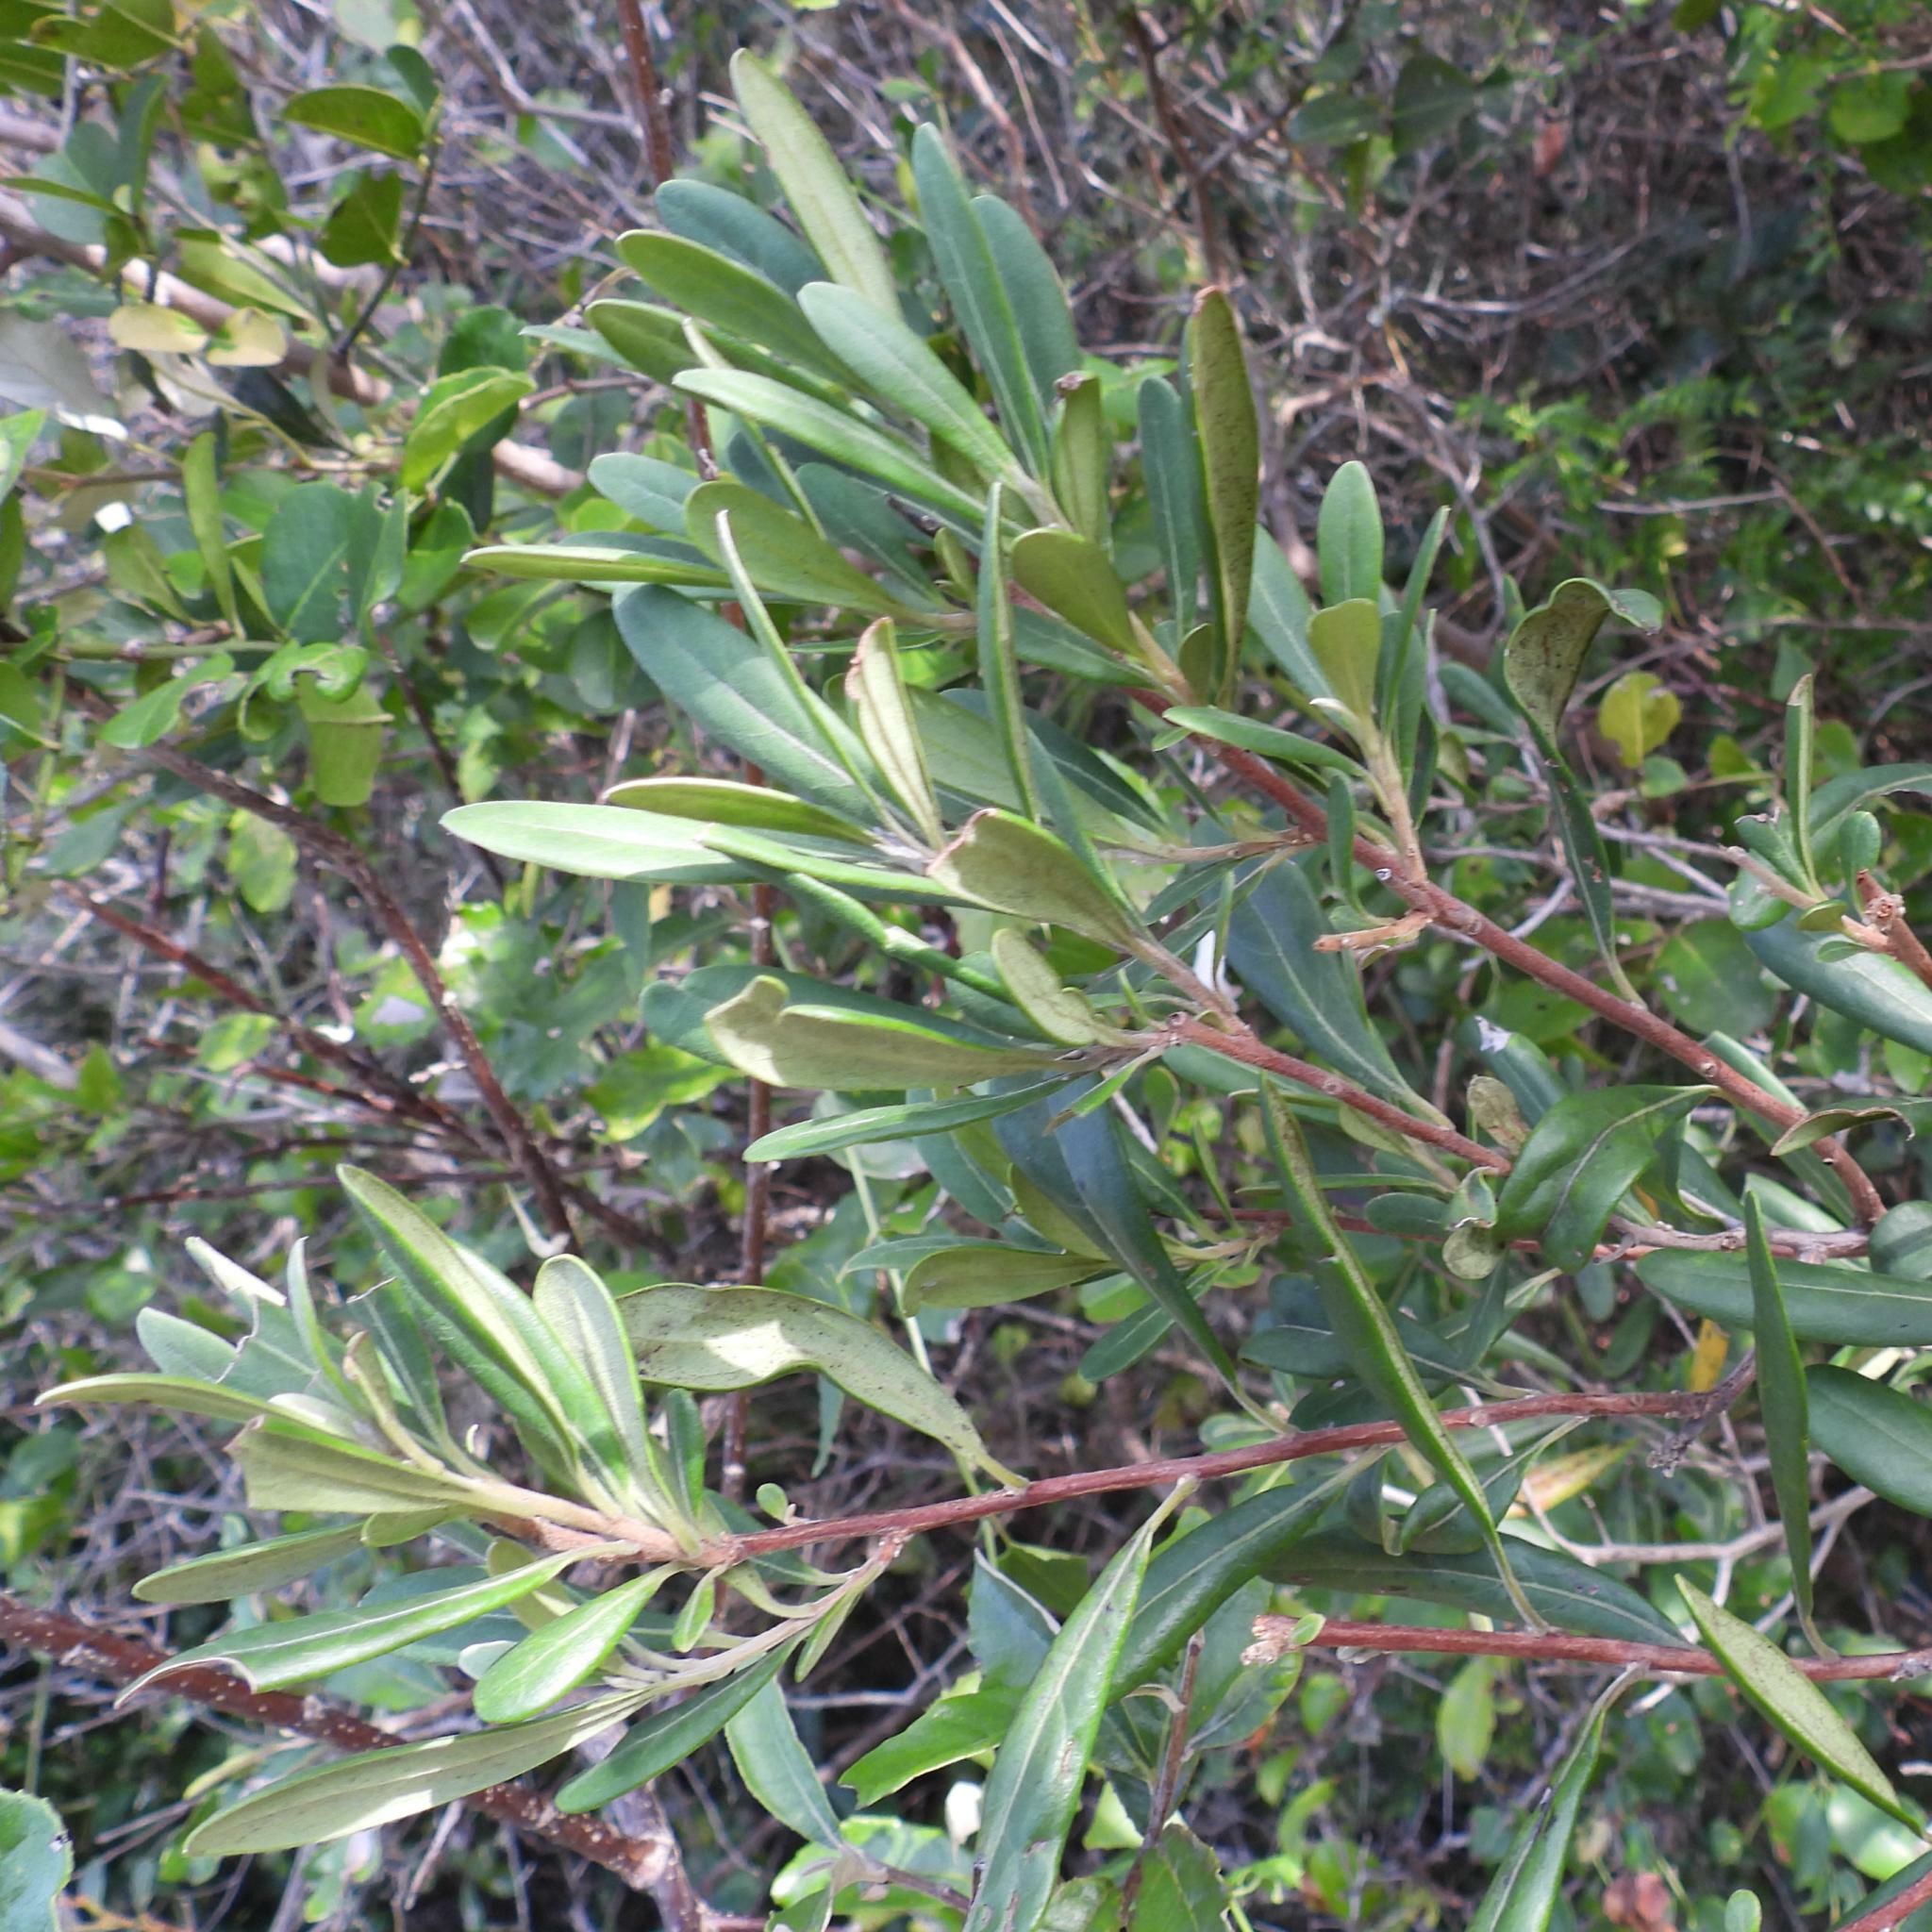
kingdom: Plantae
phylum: Tracheophyta
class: Magnoliopsida
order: Ericales
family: Ebenaceae
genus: Diospyros
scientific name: Diospyros dichrophylla
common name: Common star-apple
